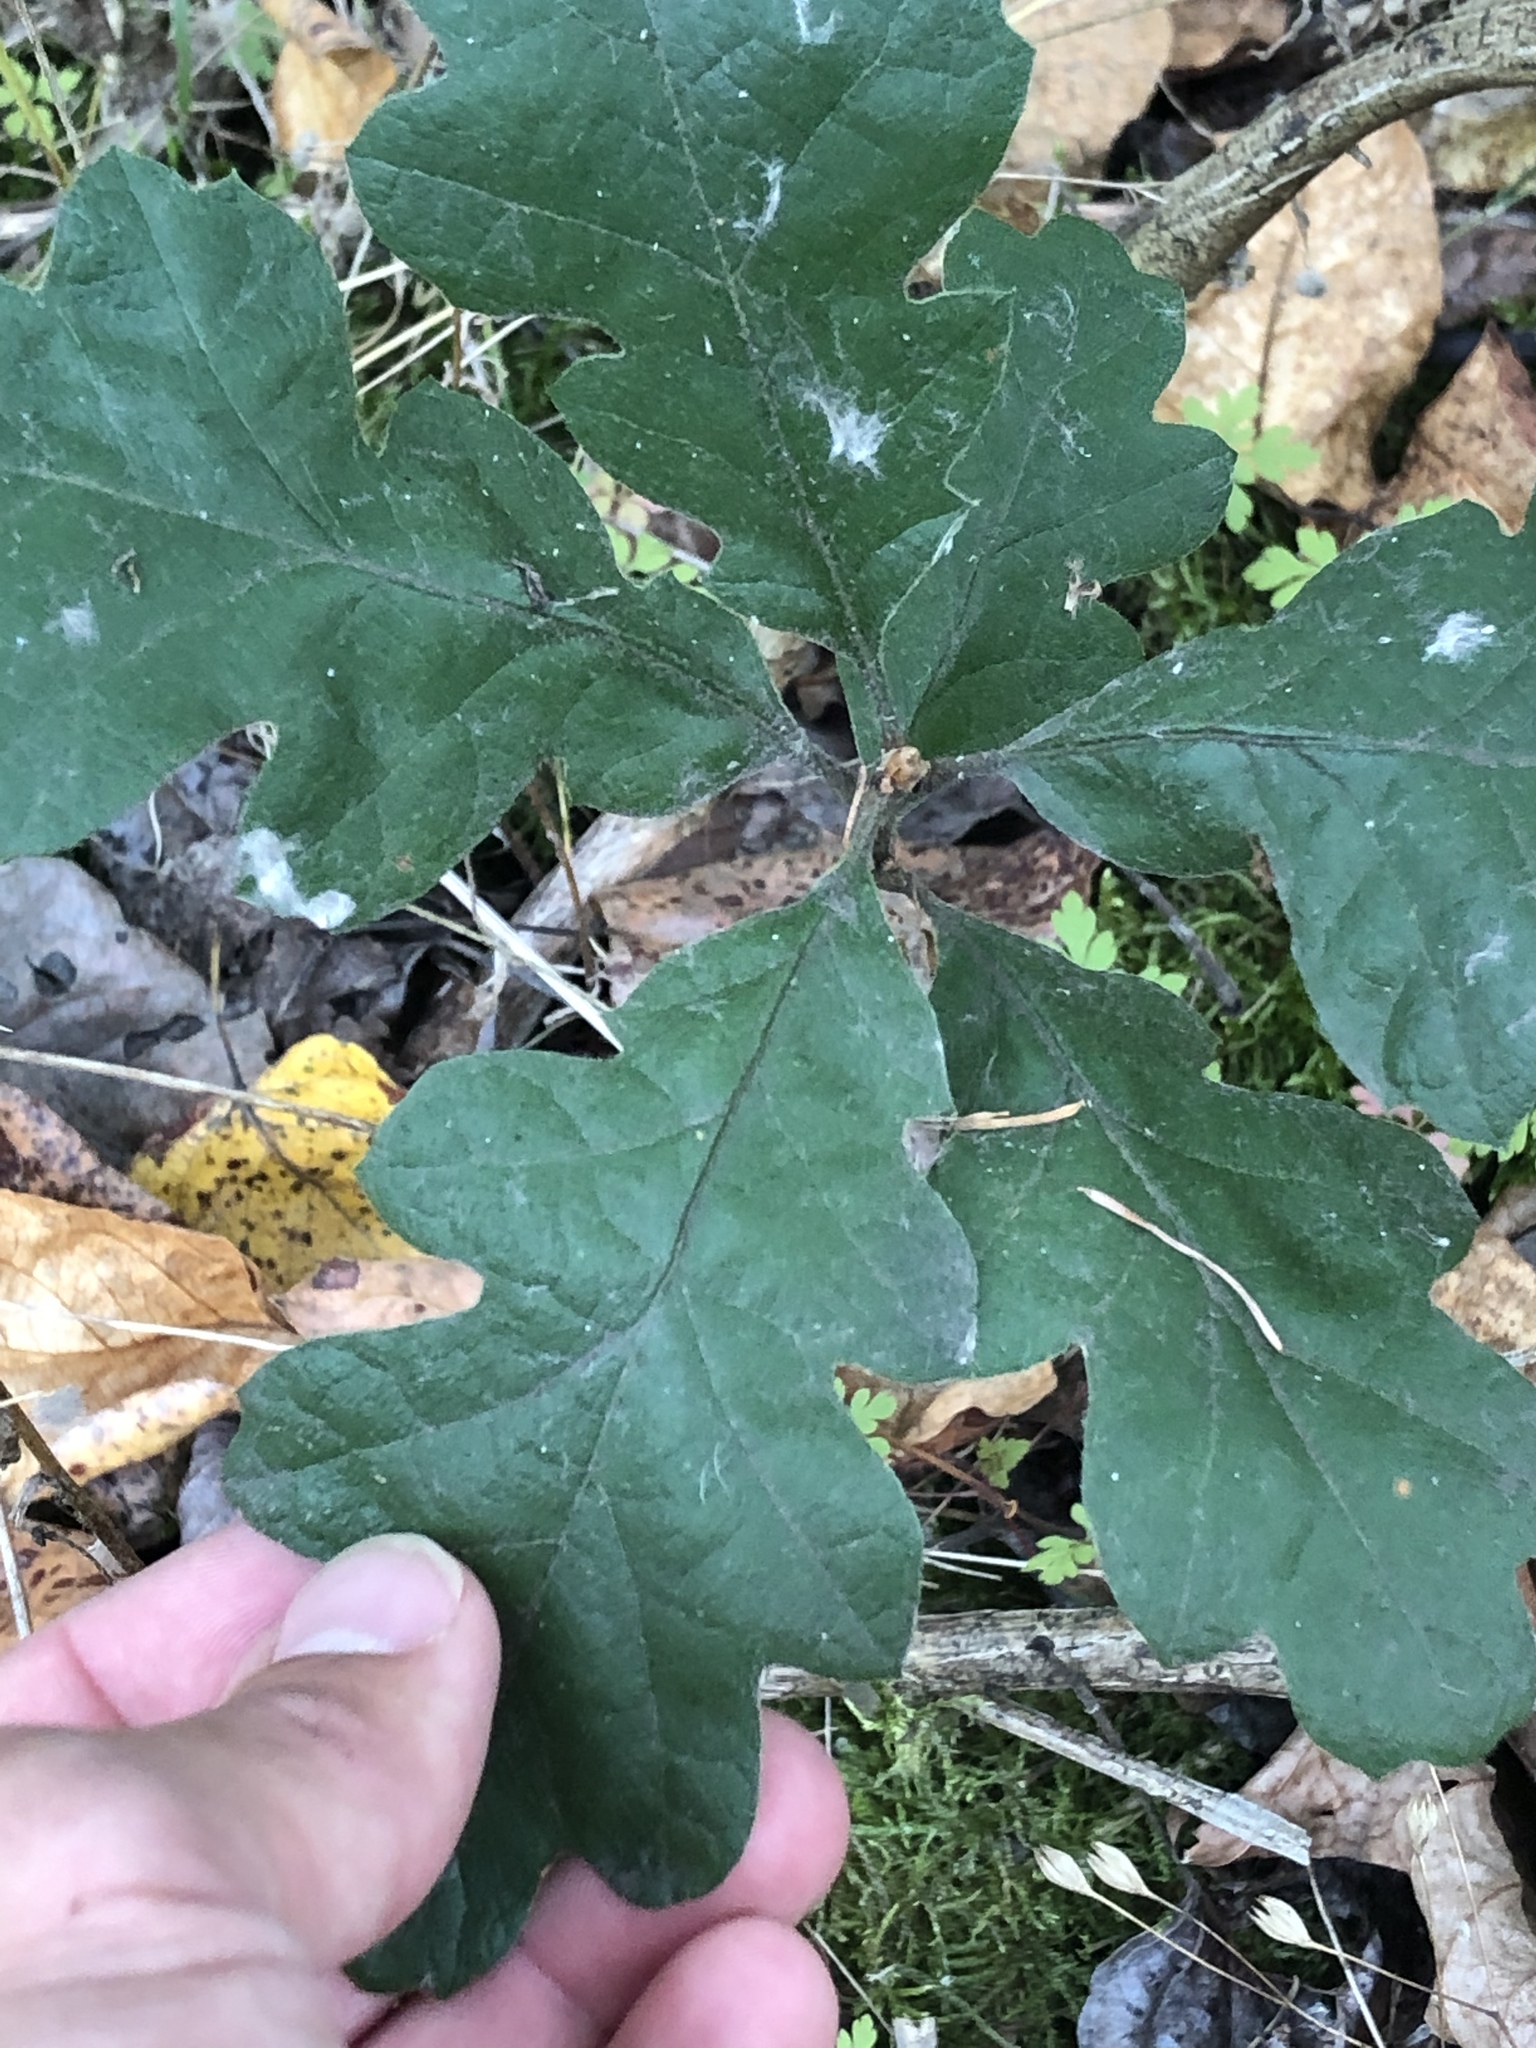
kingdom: Plantae
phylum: Tracheophyta
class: Magnoliopsida
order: Fagales
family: Fagaceae
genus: Quercus
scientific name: Quercus garryana
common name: Garry oak
